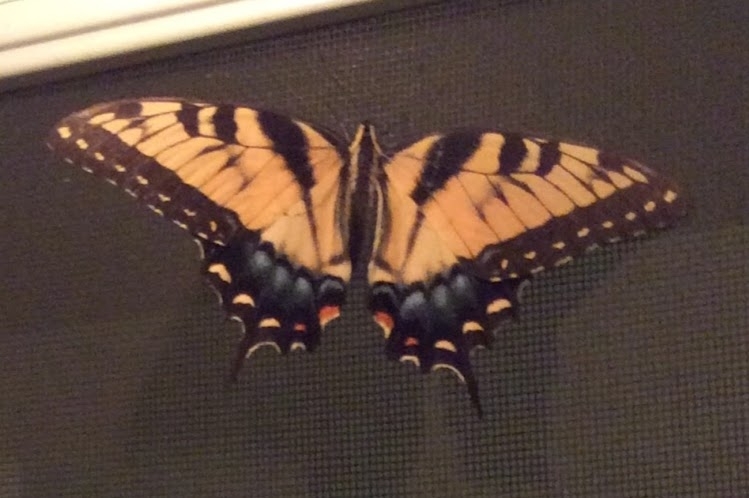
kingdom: Animalia
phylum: Arthropoda
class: Insecta
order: Lepidoptera
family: Papilionidae
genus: Papilio
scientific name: Papilio glaucus
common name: Tiger swallowtail
